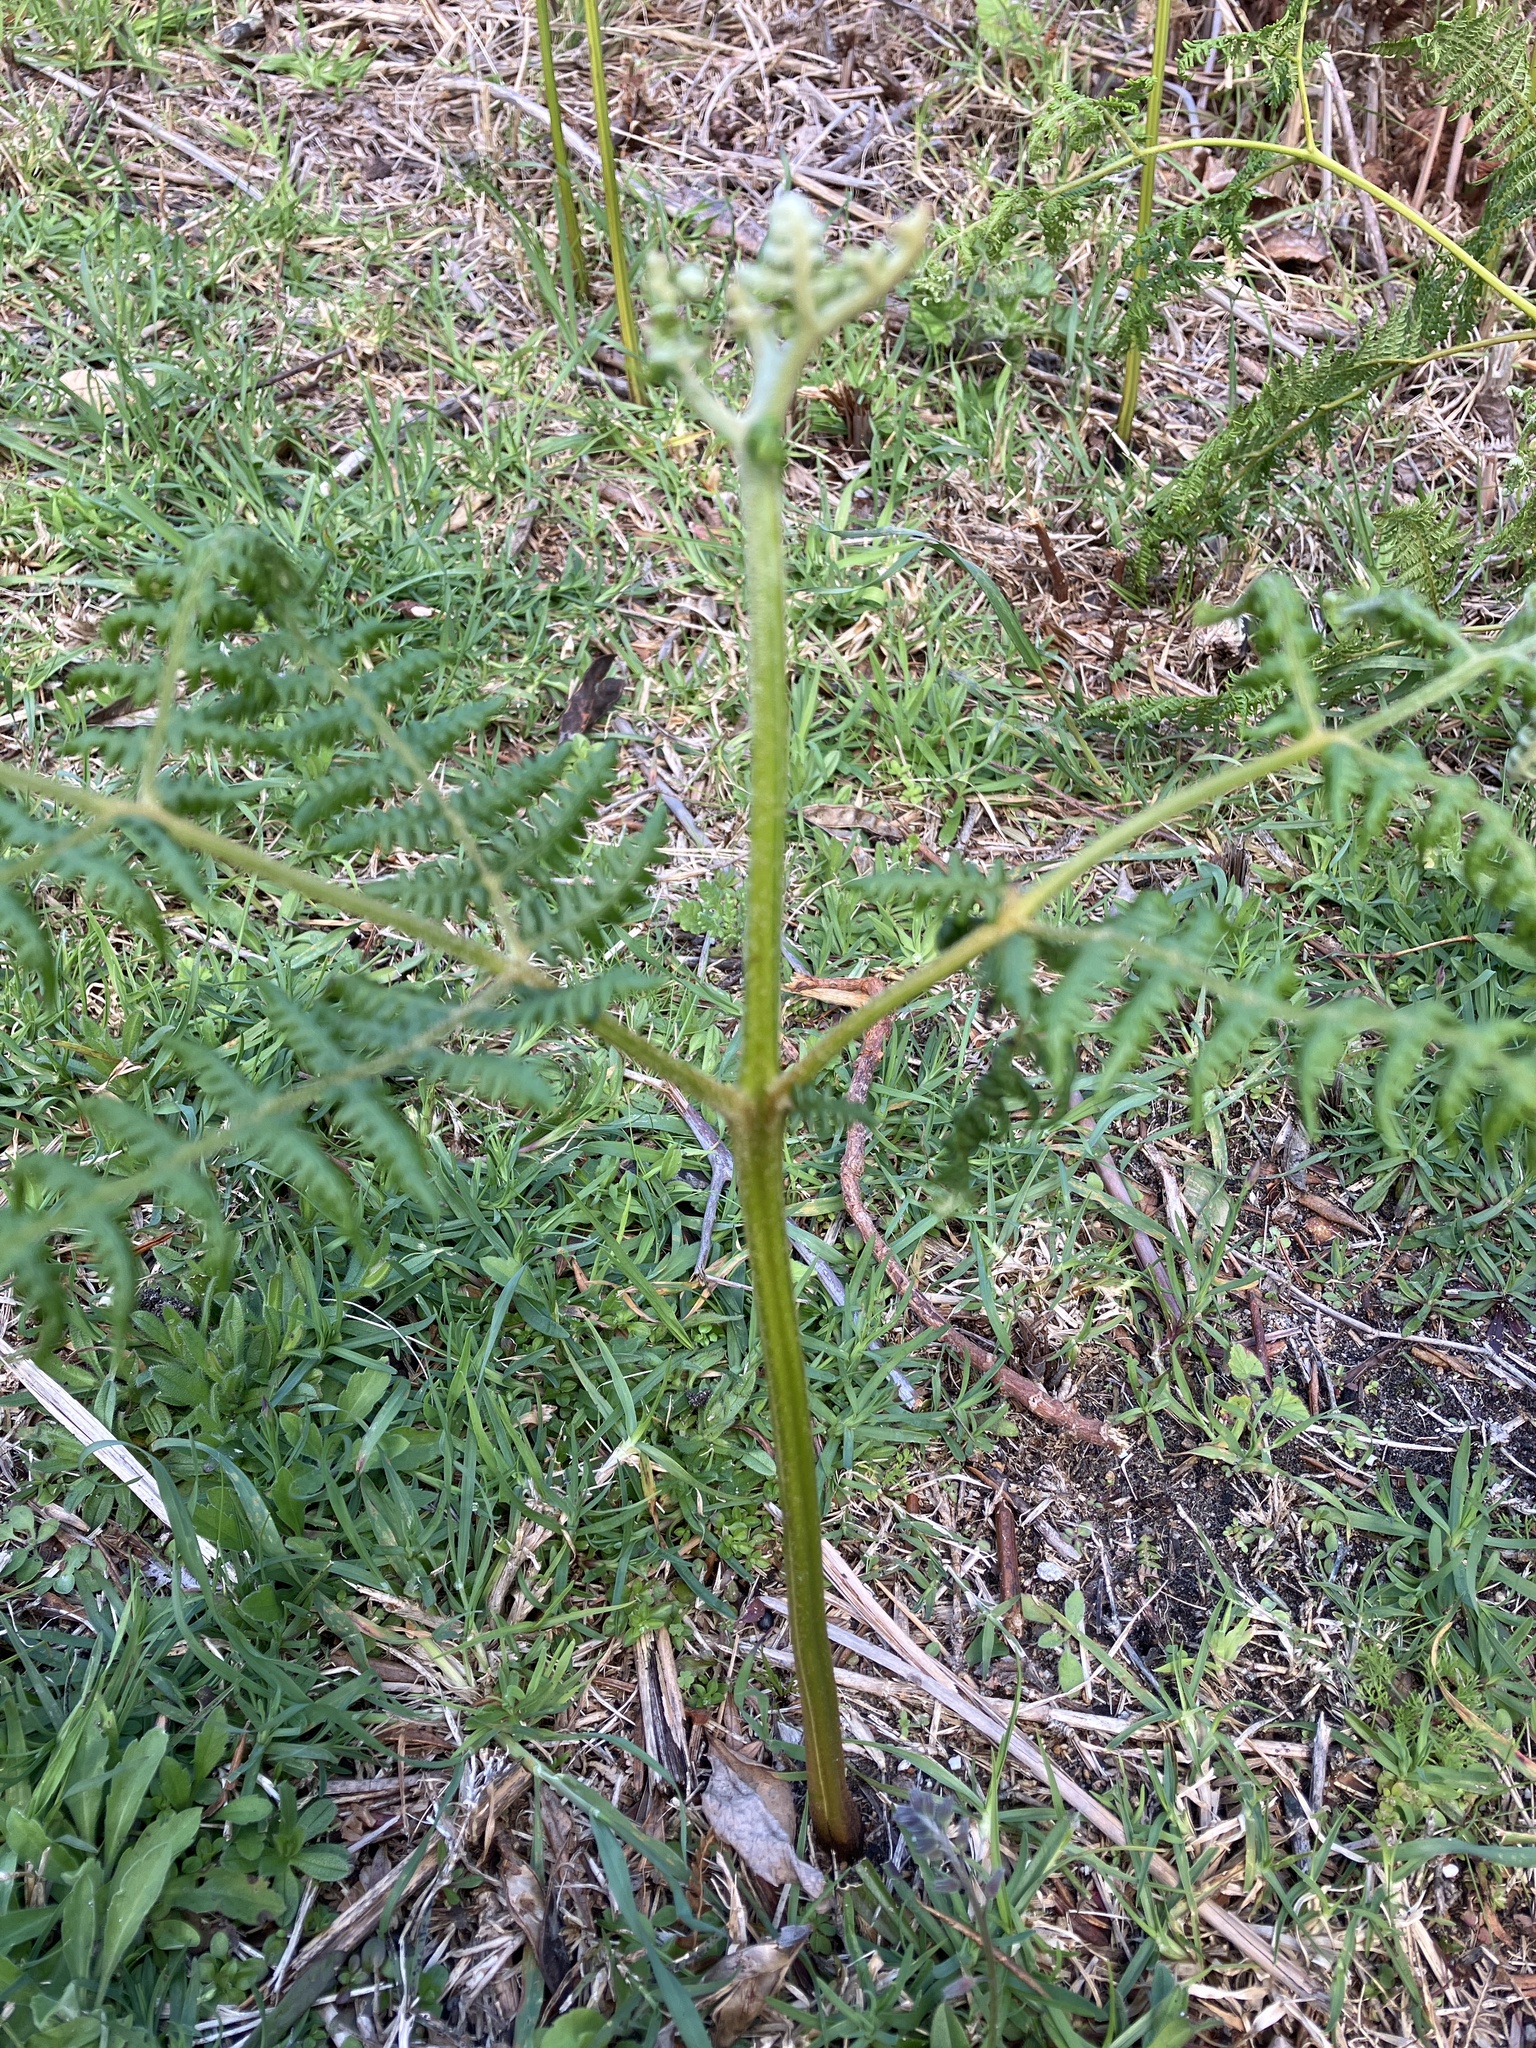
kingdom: Plantae
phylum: Tracheophyta
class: Polypodiopsida
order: Polypodiales
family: Dennstaedtiaceae
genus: Pteridium
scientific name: Pteridium aquilinum
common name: Bracken
